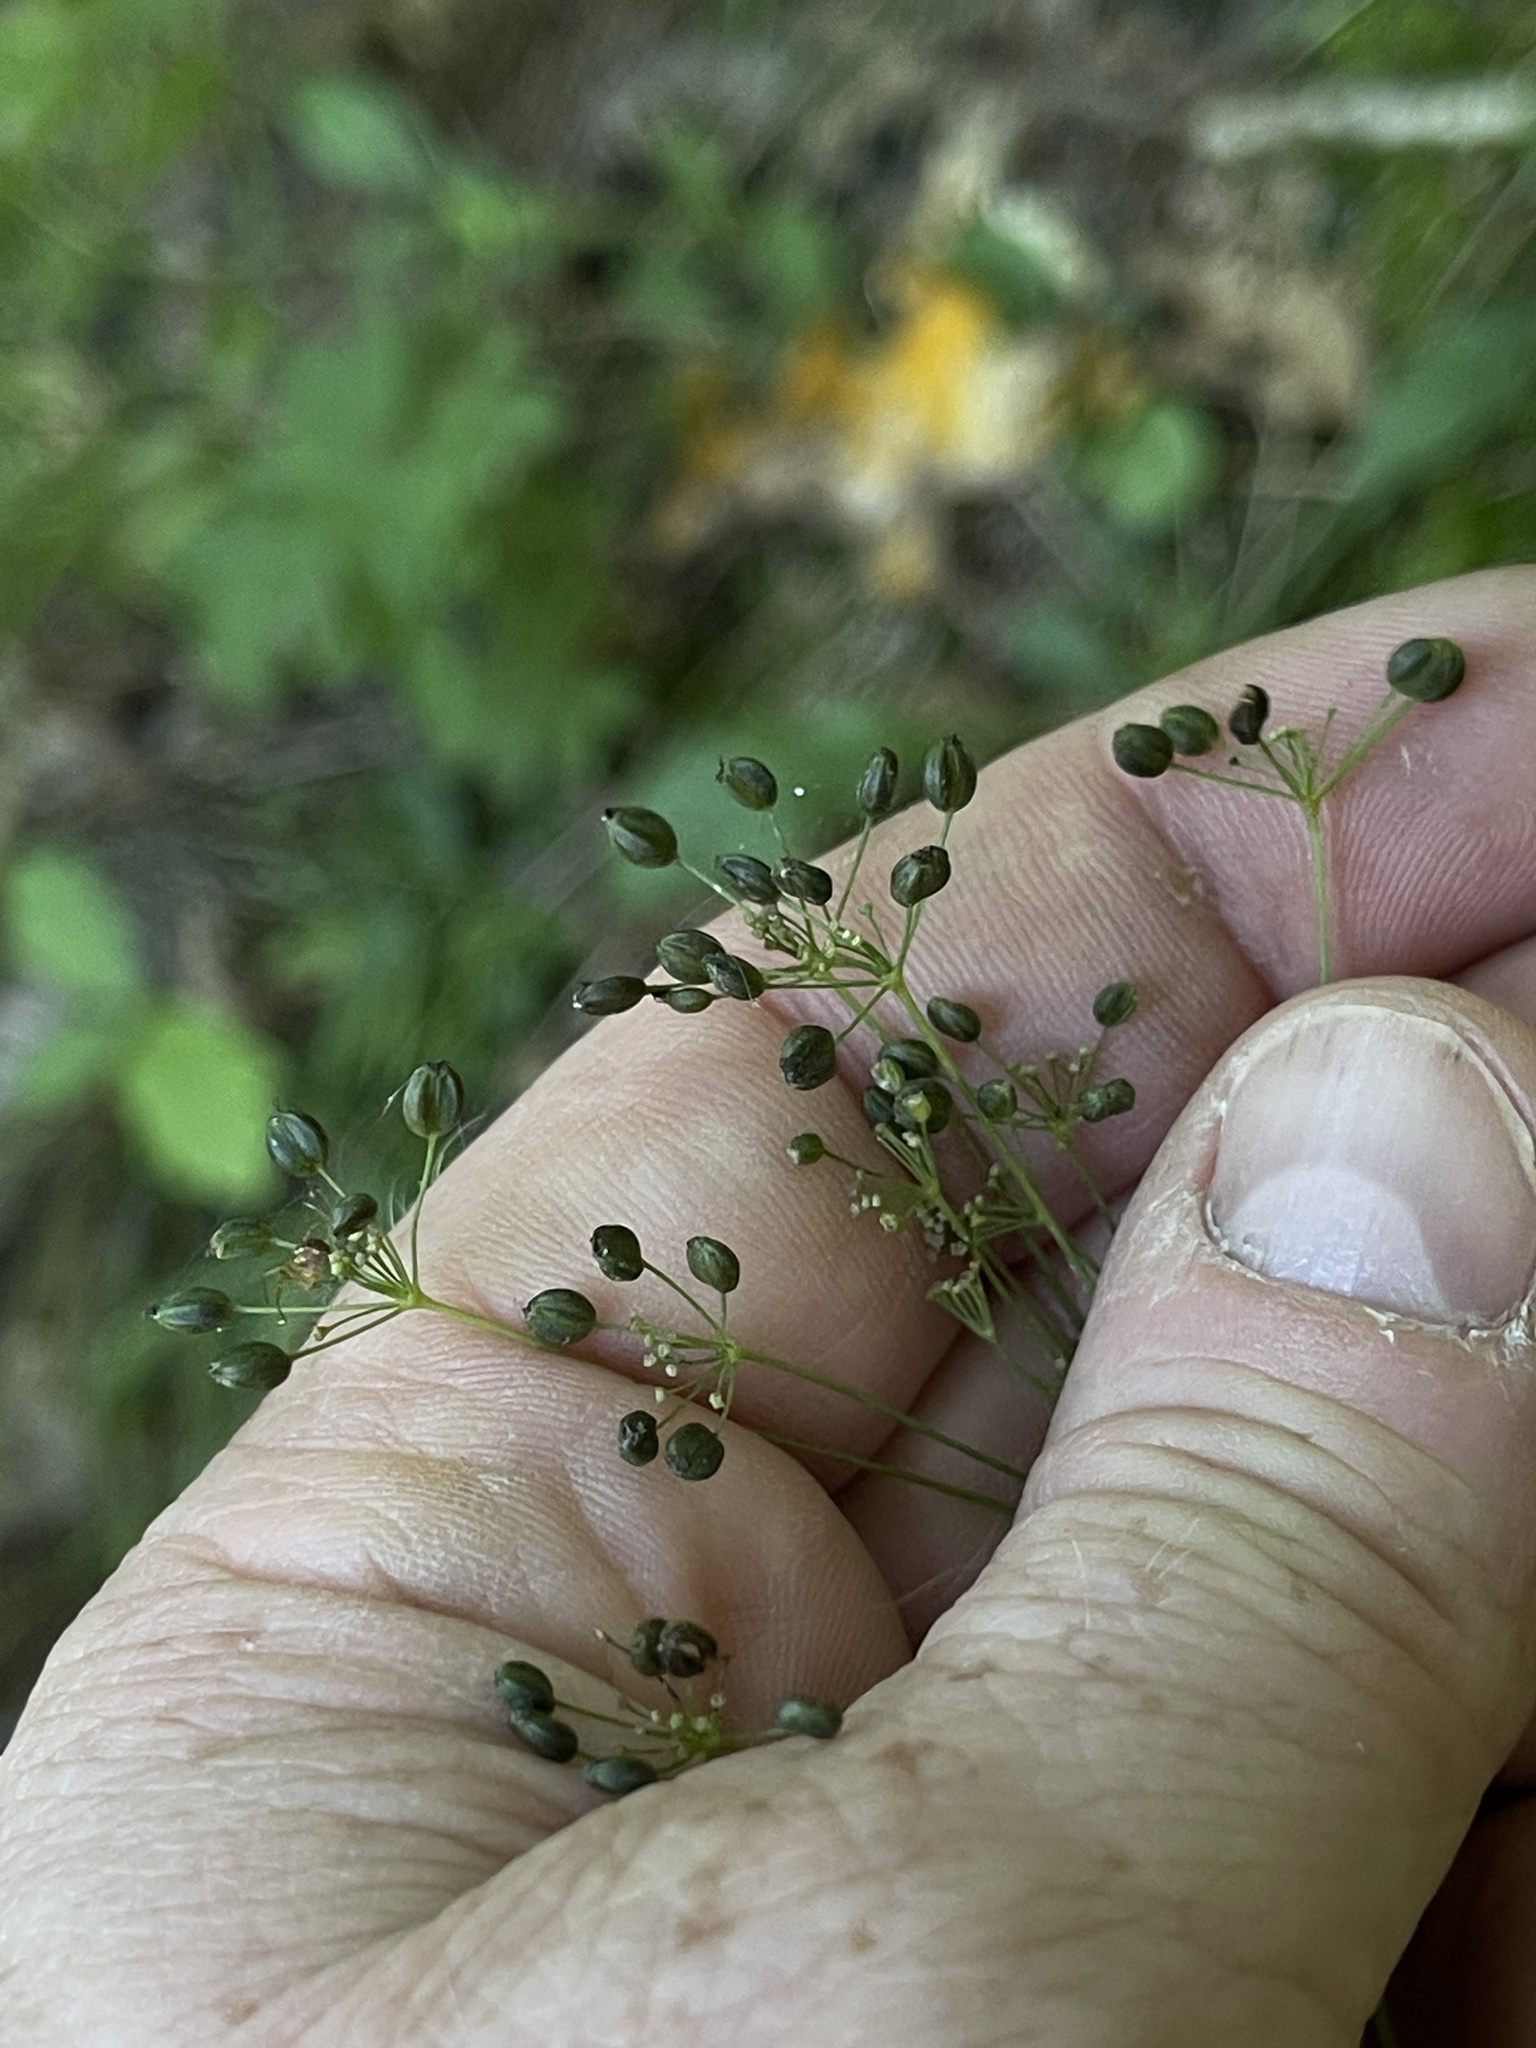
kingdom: Plantae
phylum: Tracheophyta
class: Magnoliopsida
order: Apiales
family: Apiaceae
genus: Taenidia
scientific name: Taenidia integerrima
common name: Golden alexander
